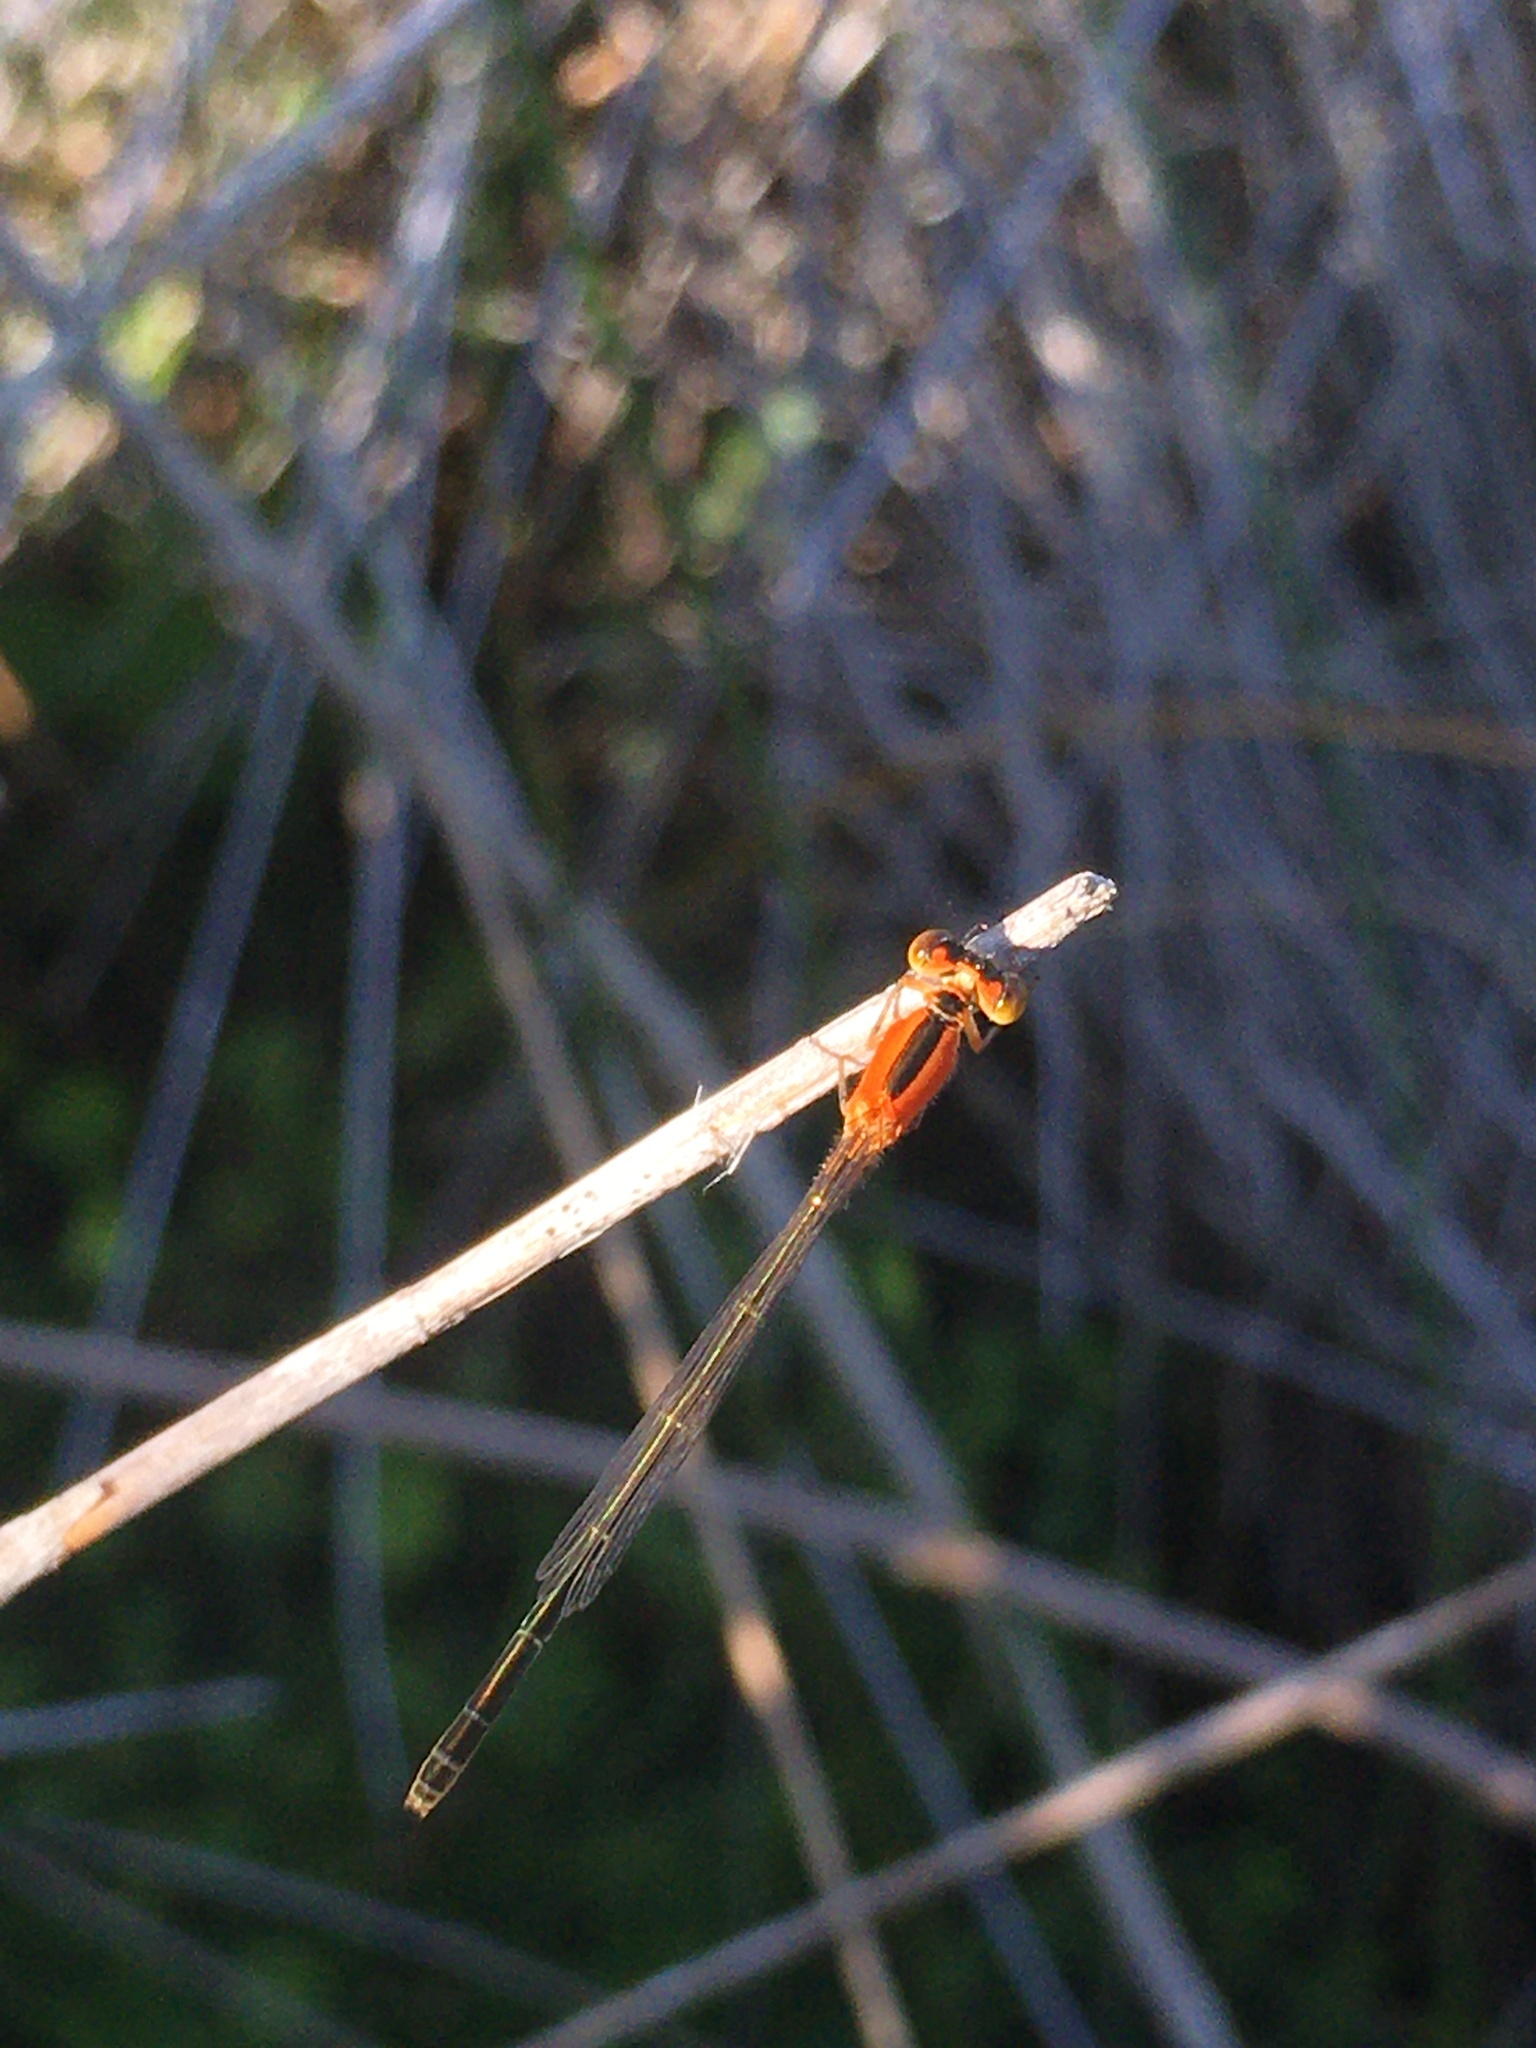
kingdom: Animalia
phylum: Arthropoda
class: Insecta
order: Odonata
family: Coenagrionidae
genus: Ischnura
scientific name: Ischnura ramburii
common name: Rambur's forktail
